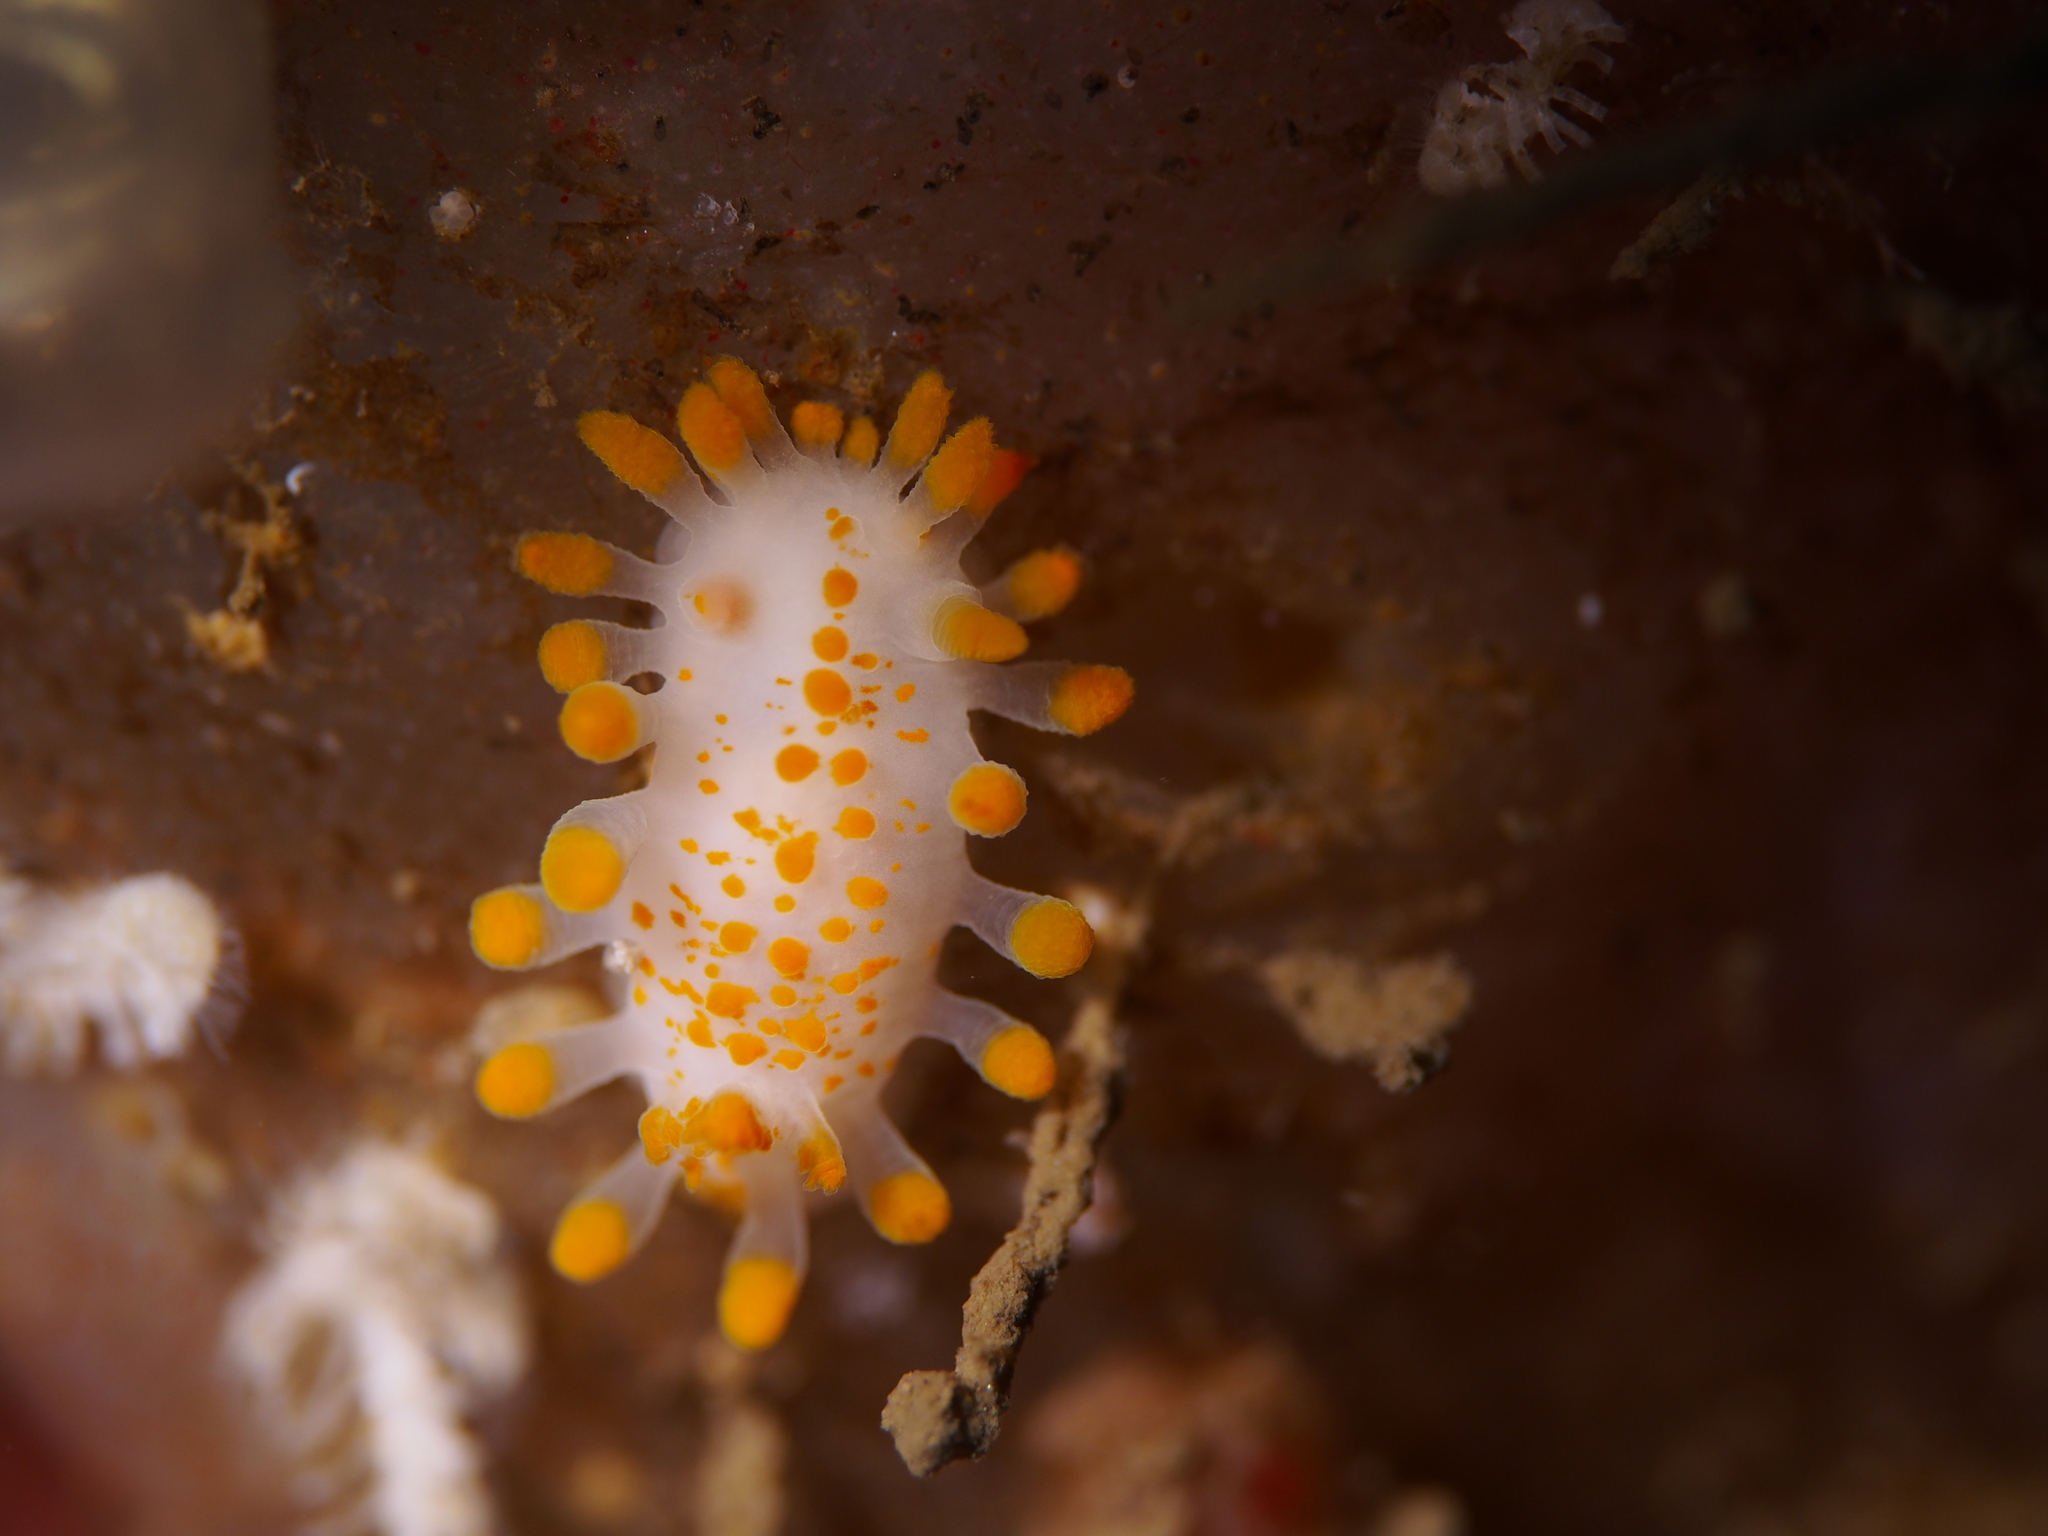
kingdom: Animalia
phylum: Mollusca
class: Gastropoda
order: Nudibranchia
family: Polyceridae
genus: Limacia
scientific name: Limacia clavigera
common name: Orange-clubbed sea slug
